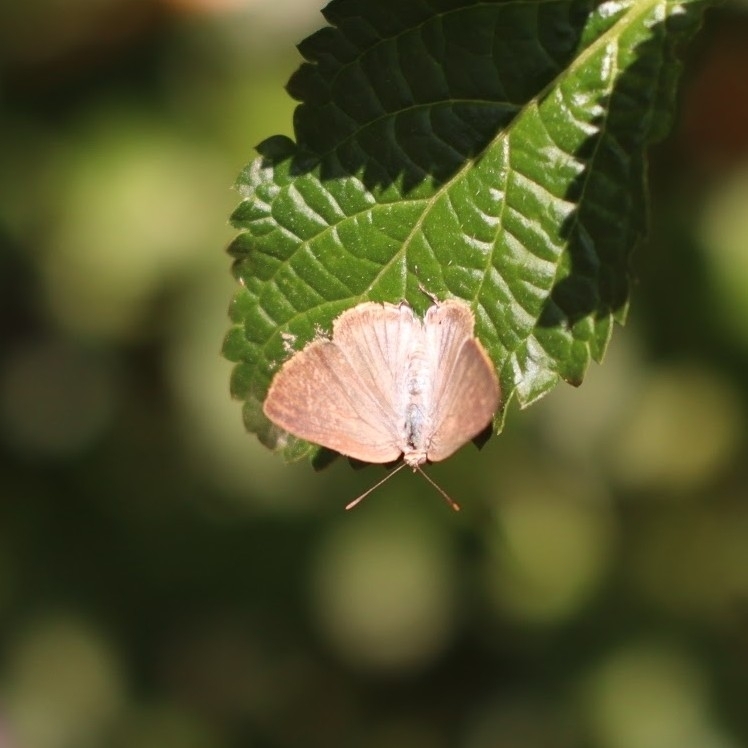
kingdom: Animalia
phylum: Arthropoda
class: Insecta
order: Lepidoptera
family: Lycaenidae
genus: Rekoa
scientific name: Rekoa palegon
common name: Gold-bordered hairstreak
